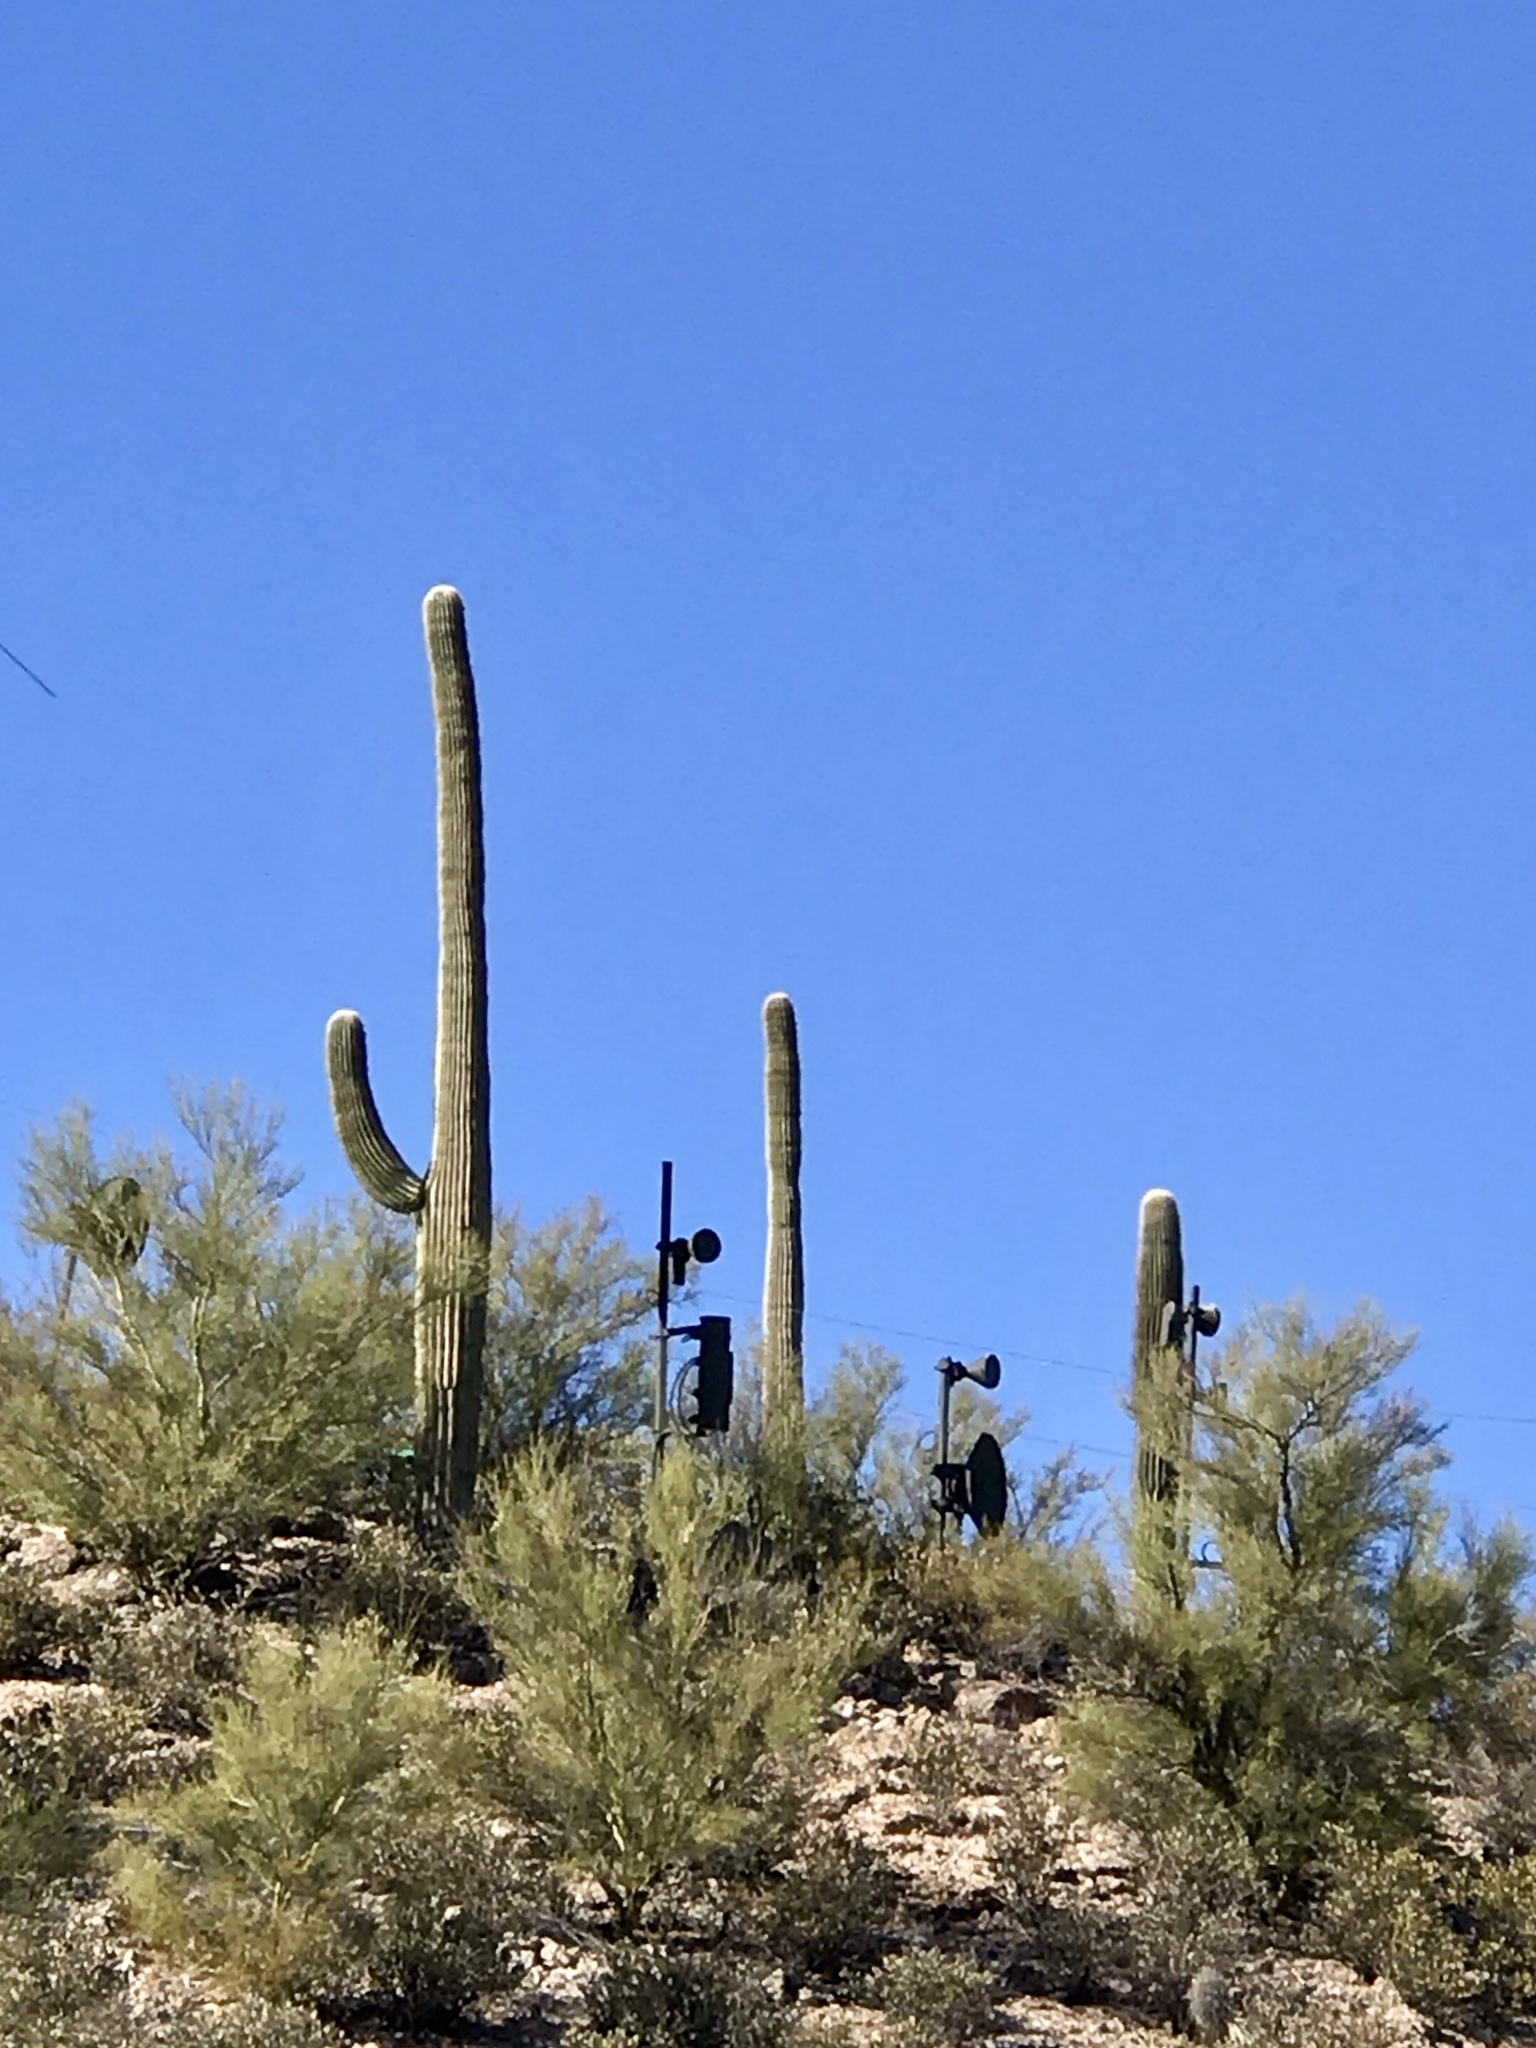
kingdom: Plantae
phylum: Tracheophyta
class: Magnoliopsida
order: Caryophyllales
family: Cactaceae
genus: Carnegiea
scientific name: Carnegiea gigantea
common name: Saguaro
